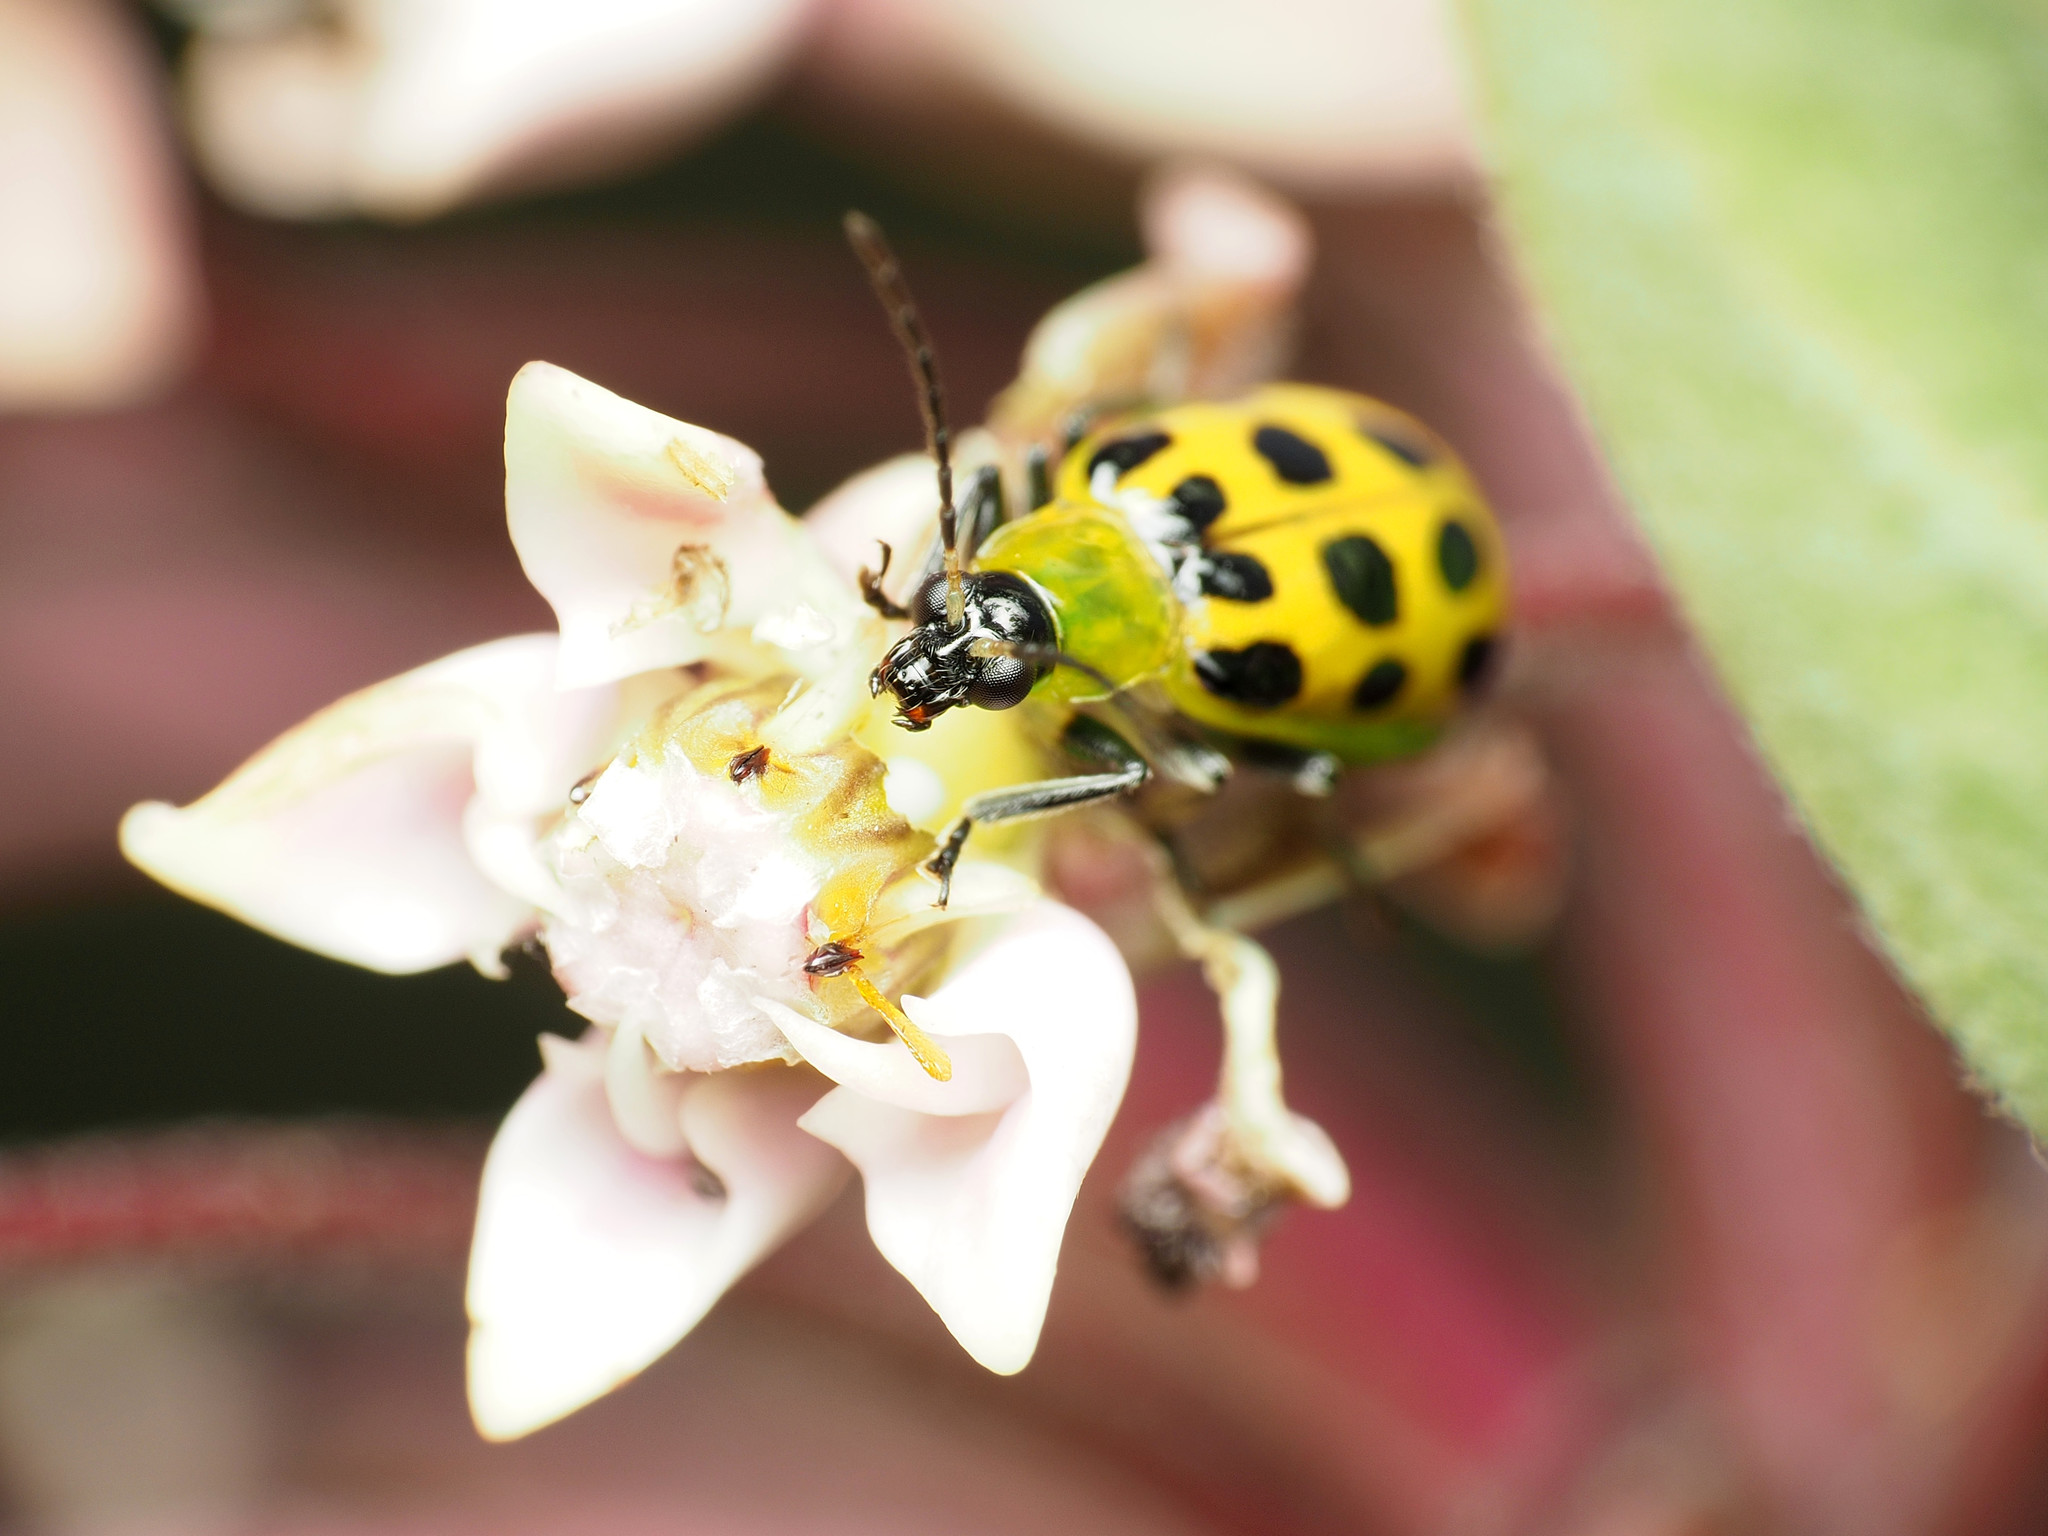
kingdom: Animalia
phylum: Arthropoda
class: Insecta
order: Coleoptera
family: Chrysomelidae
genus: Diabrotica
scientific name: Diabrotica undecimpunctata
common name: Spotted cucumber beetle
